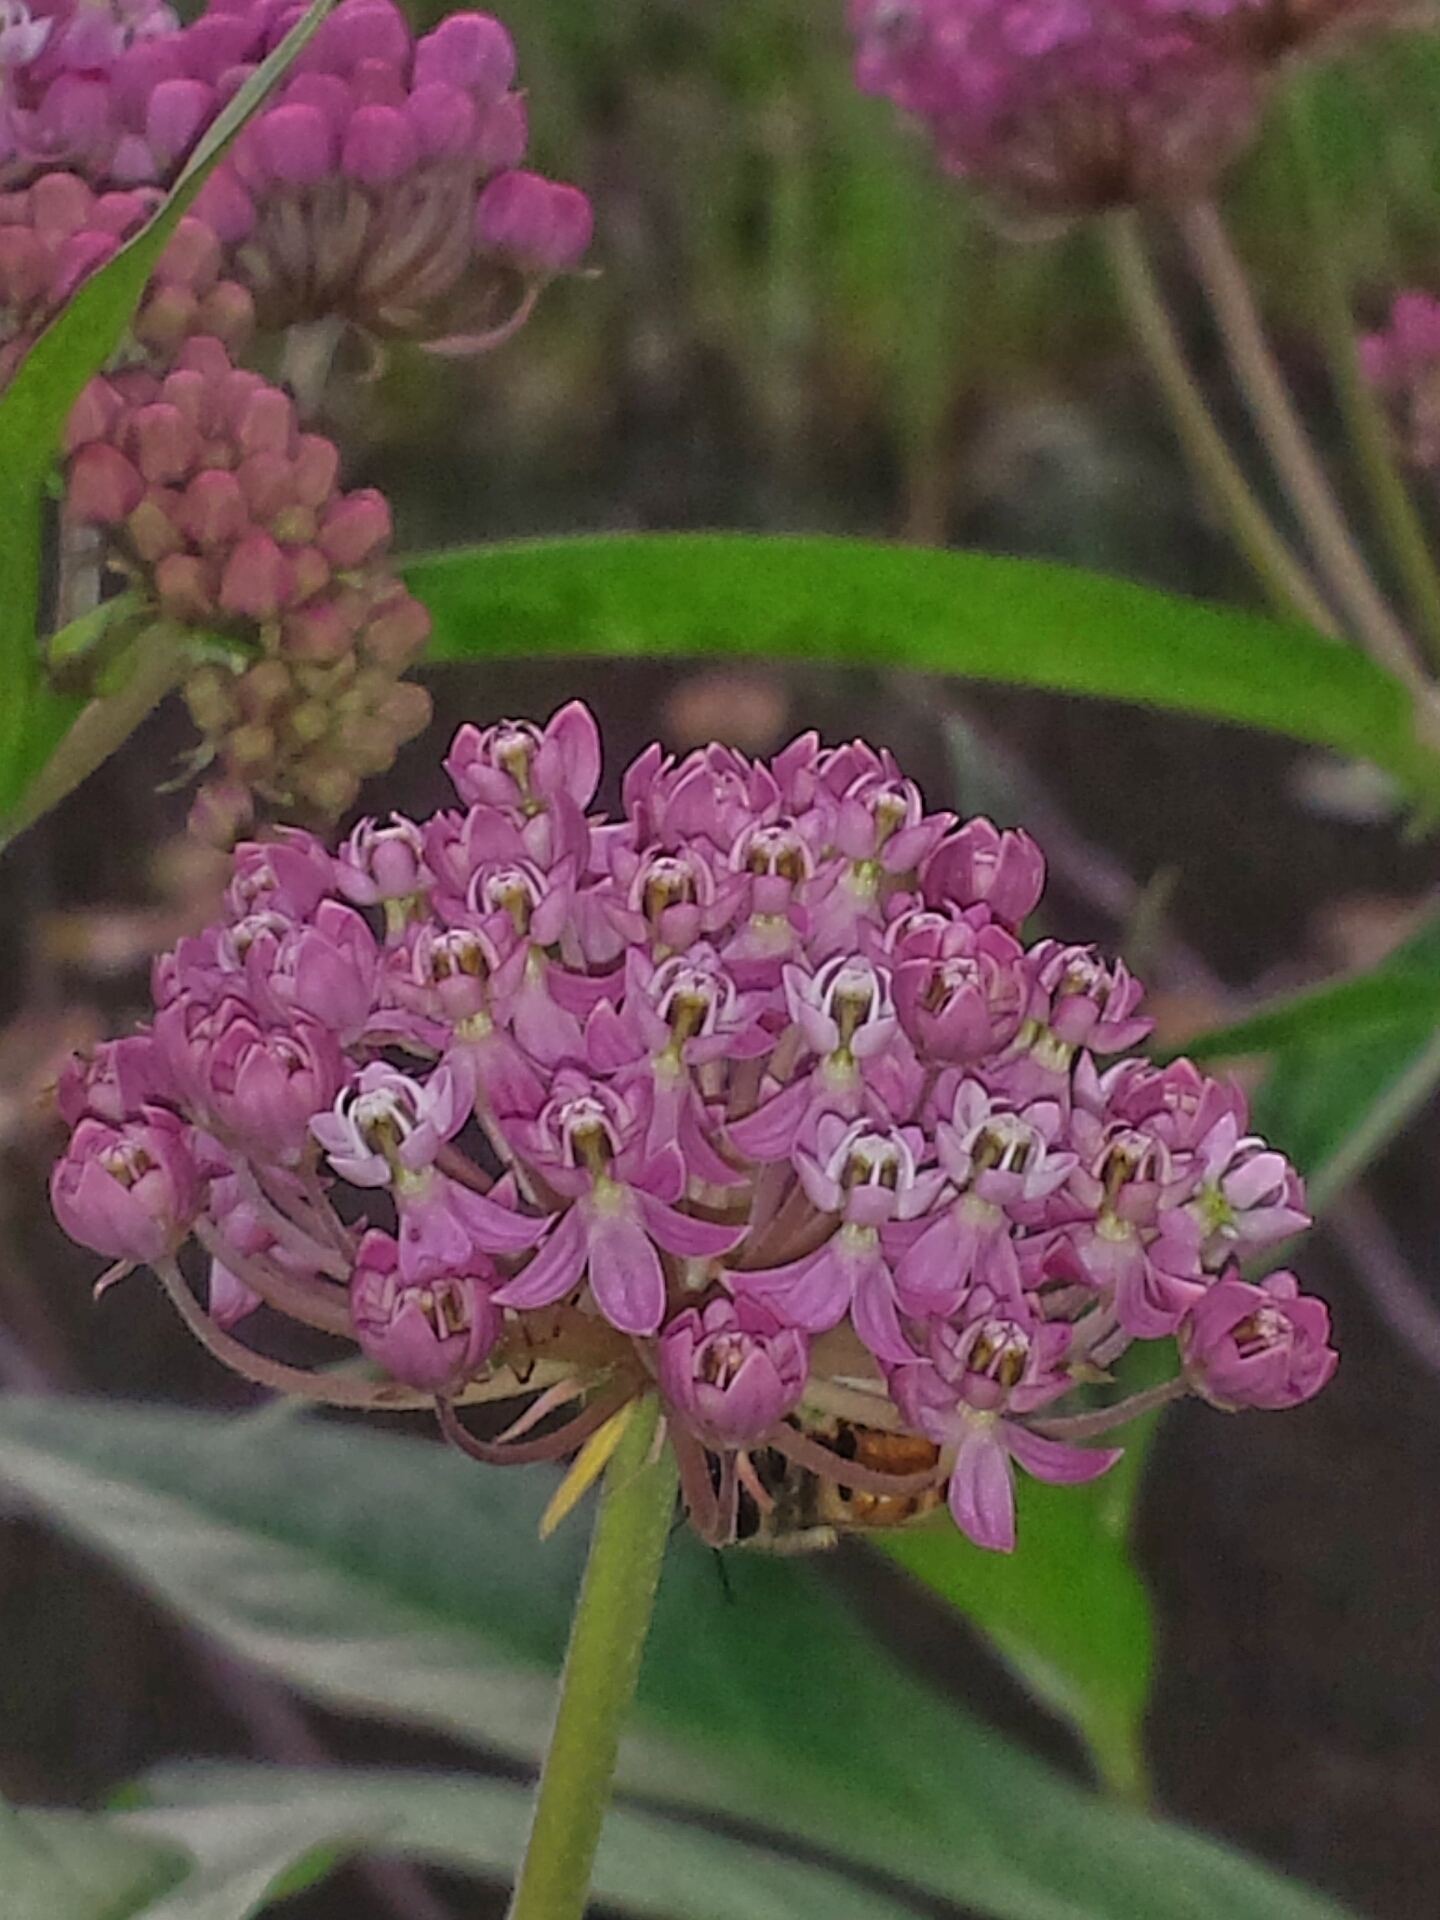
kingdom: Plantae
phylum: Tracheophyta
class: Magnoliopsida
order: Gentianales
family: Apocynaceae
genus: Asclepias
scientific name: Asclepias incarnata
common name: Swamp milkweed
